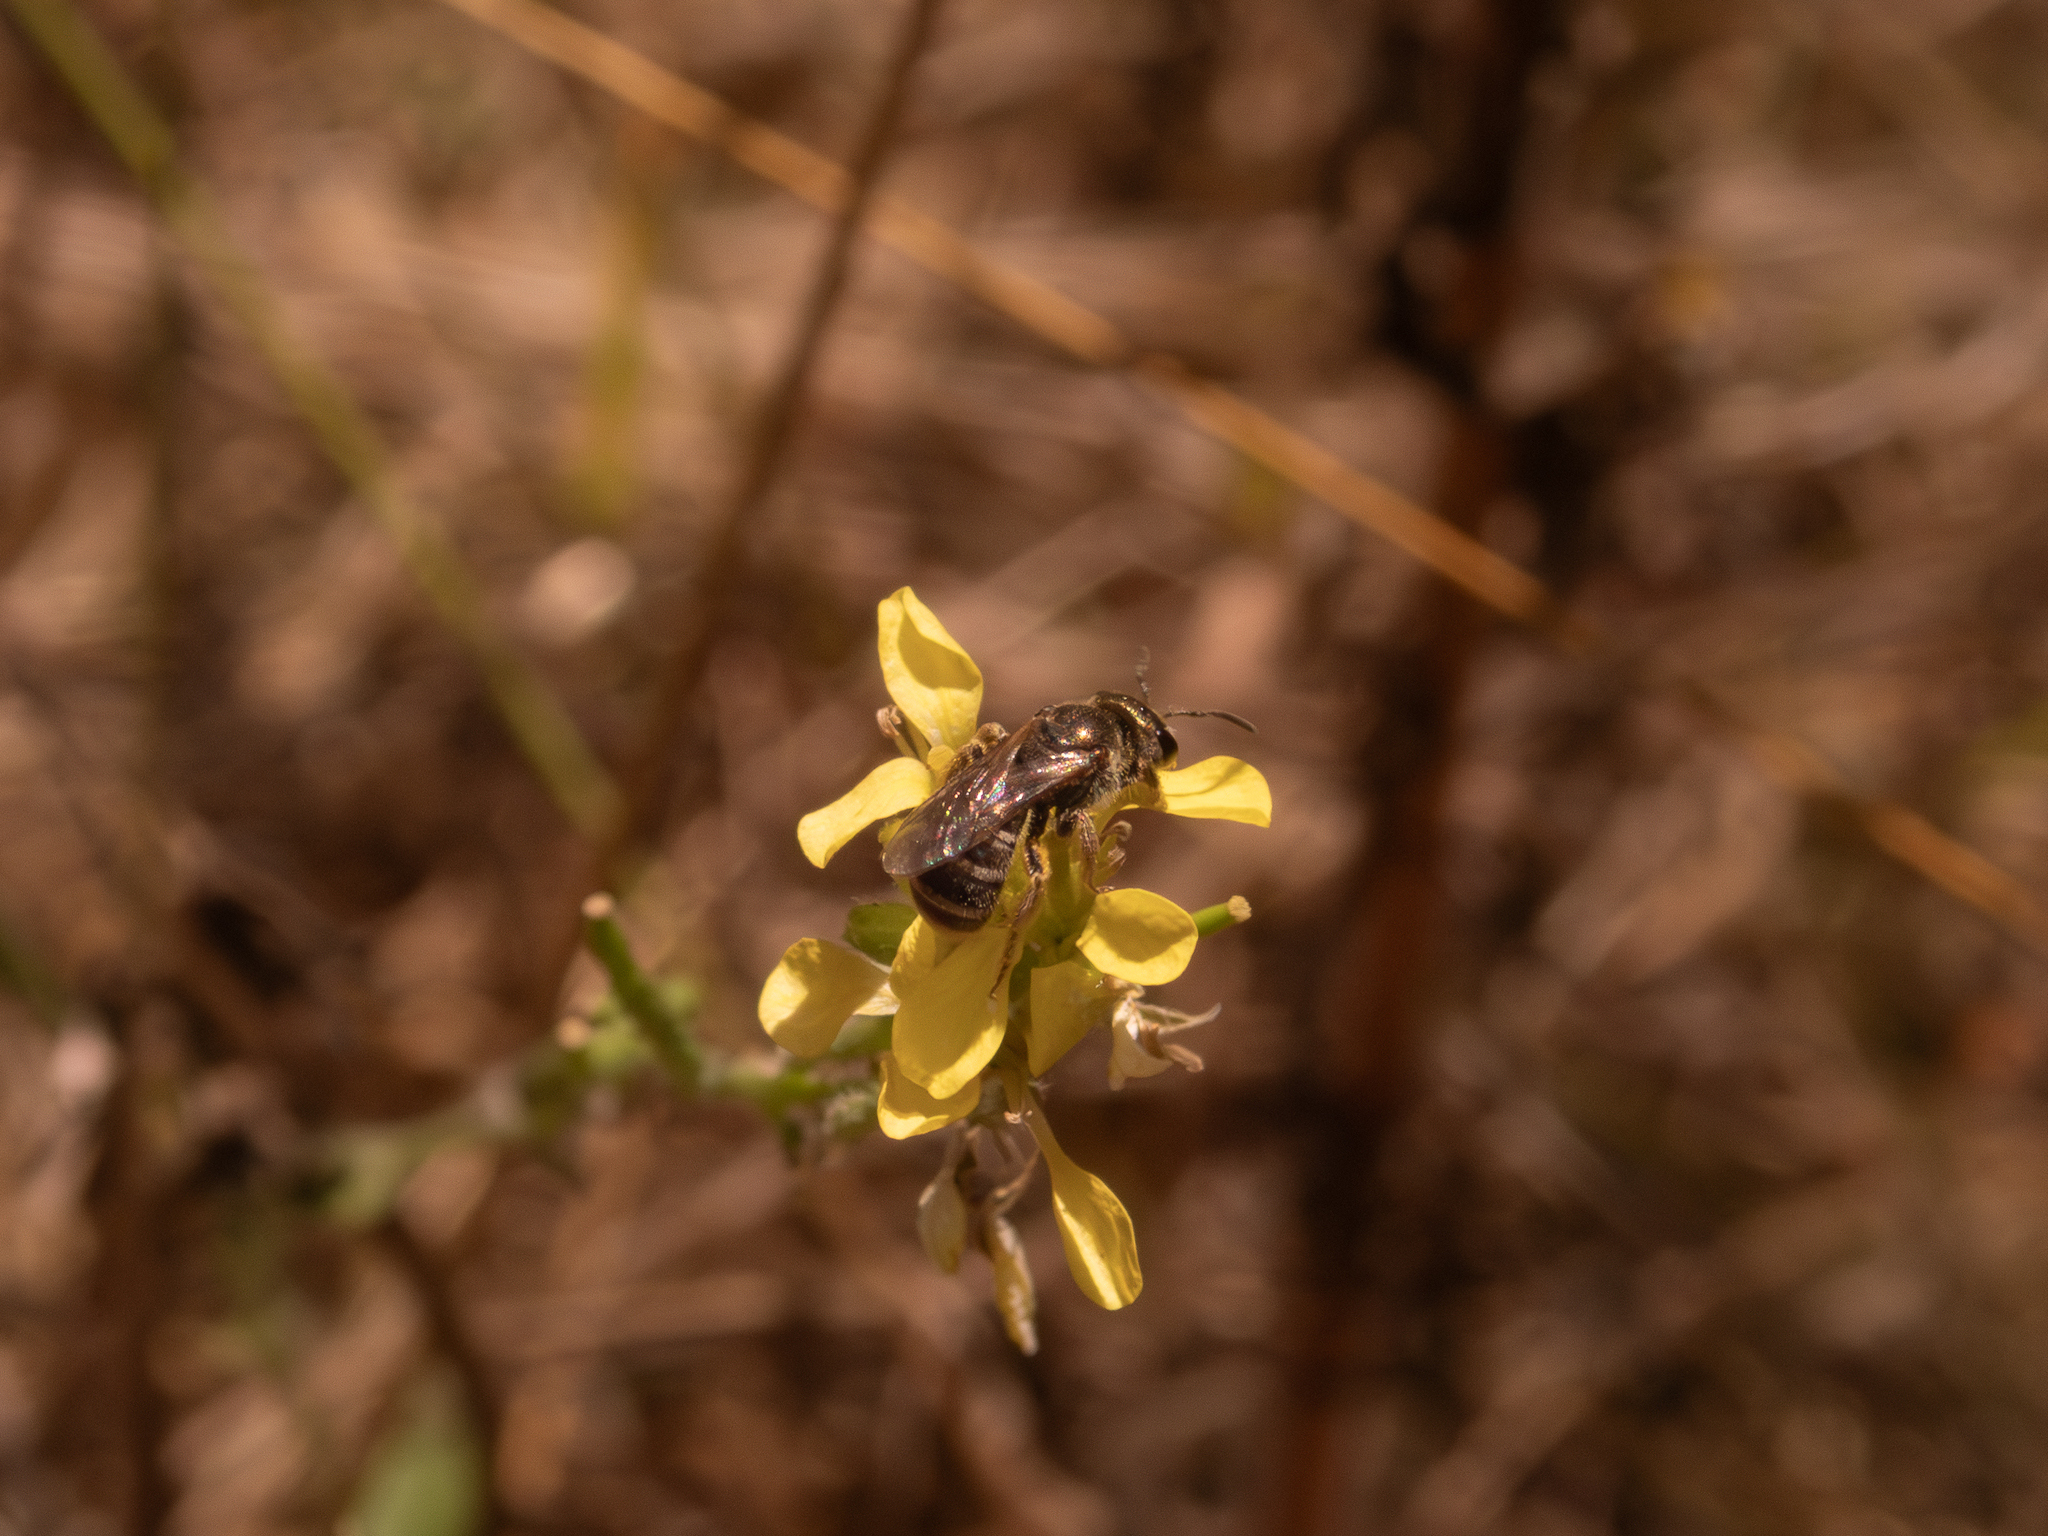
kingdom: Animalia
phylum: Arthropoda
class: Insecta
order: Hymenoptera
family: Halictidae
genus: Halictus
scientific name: Halictus tripartitus
